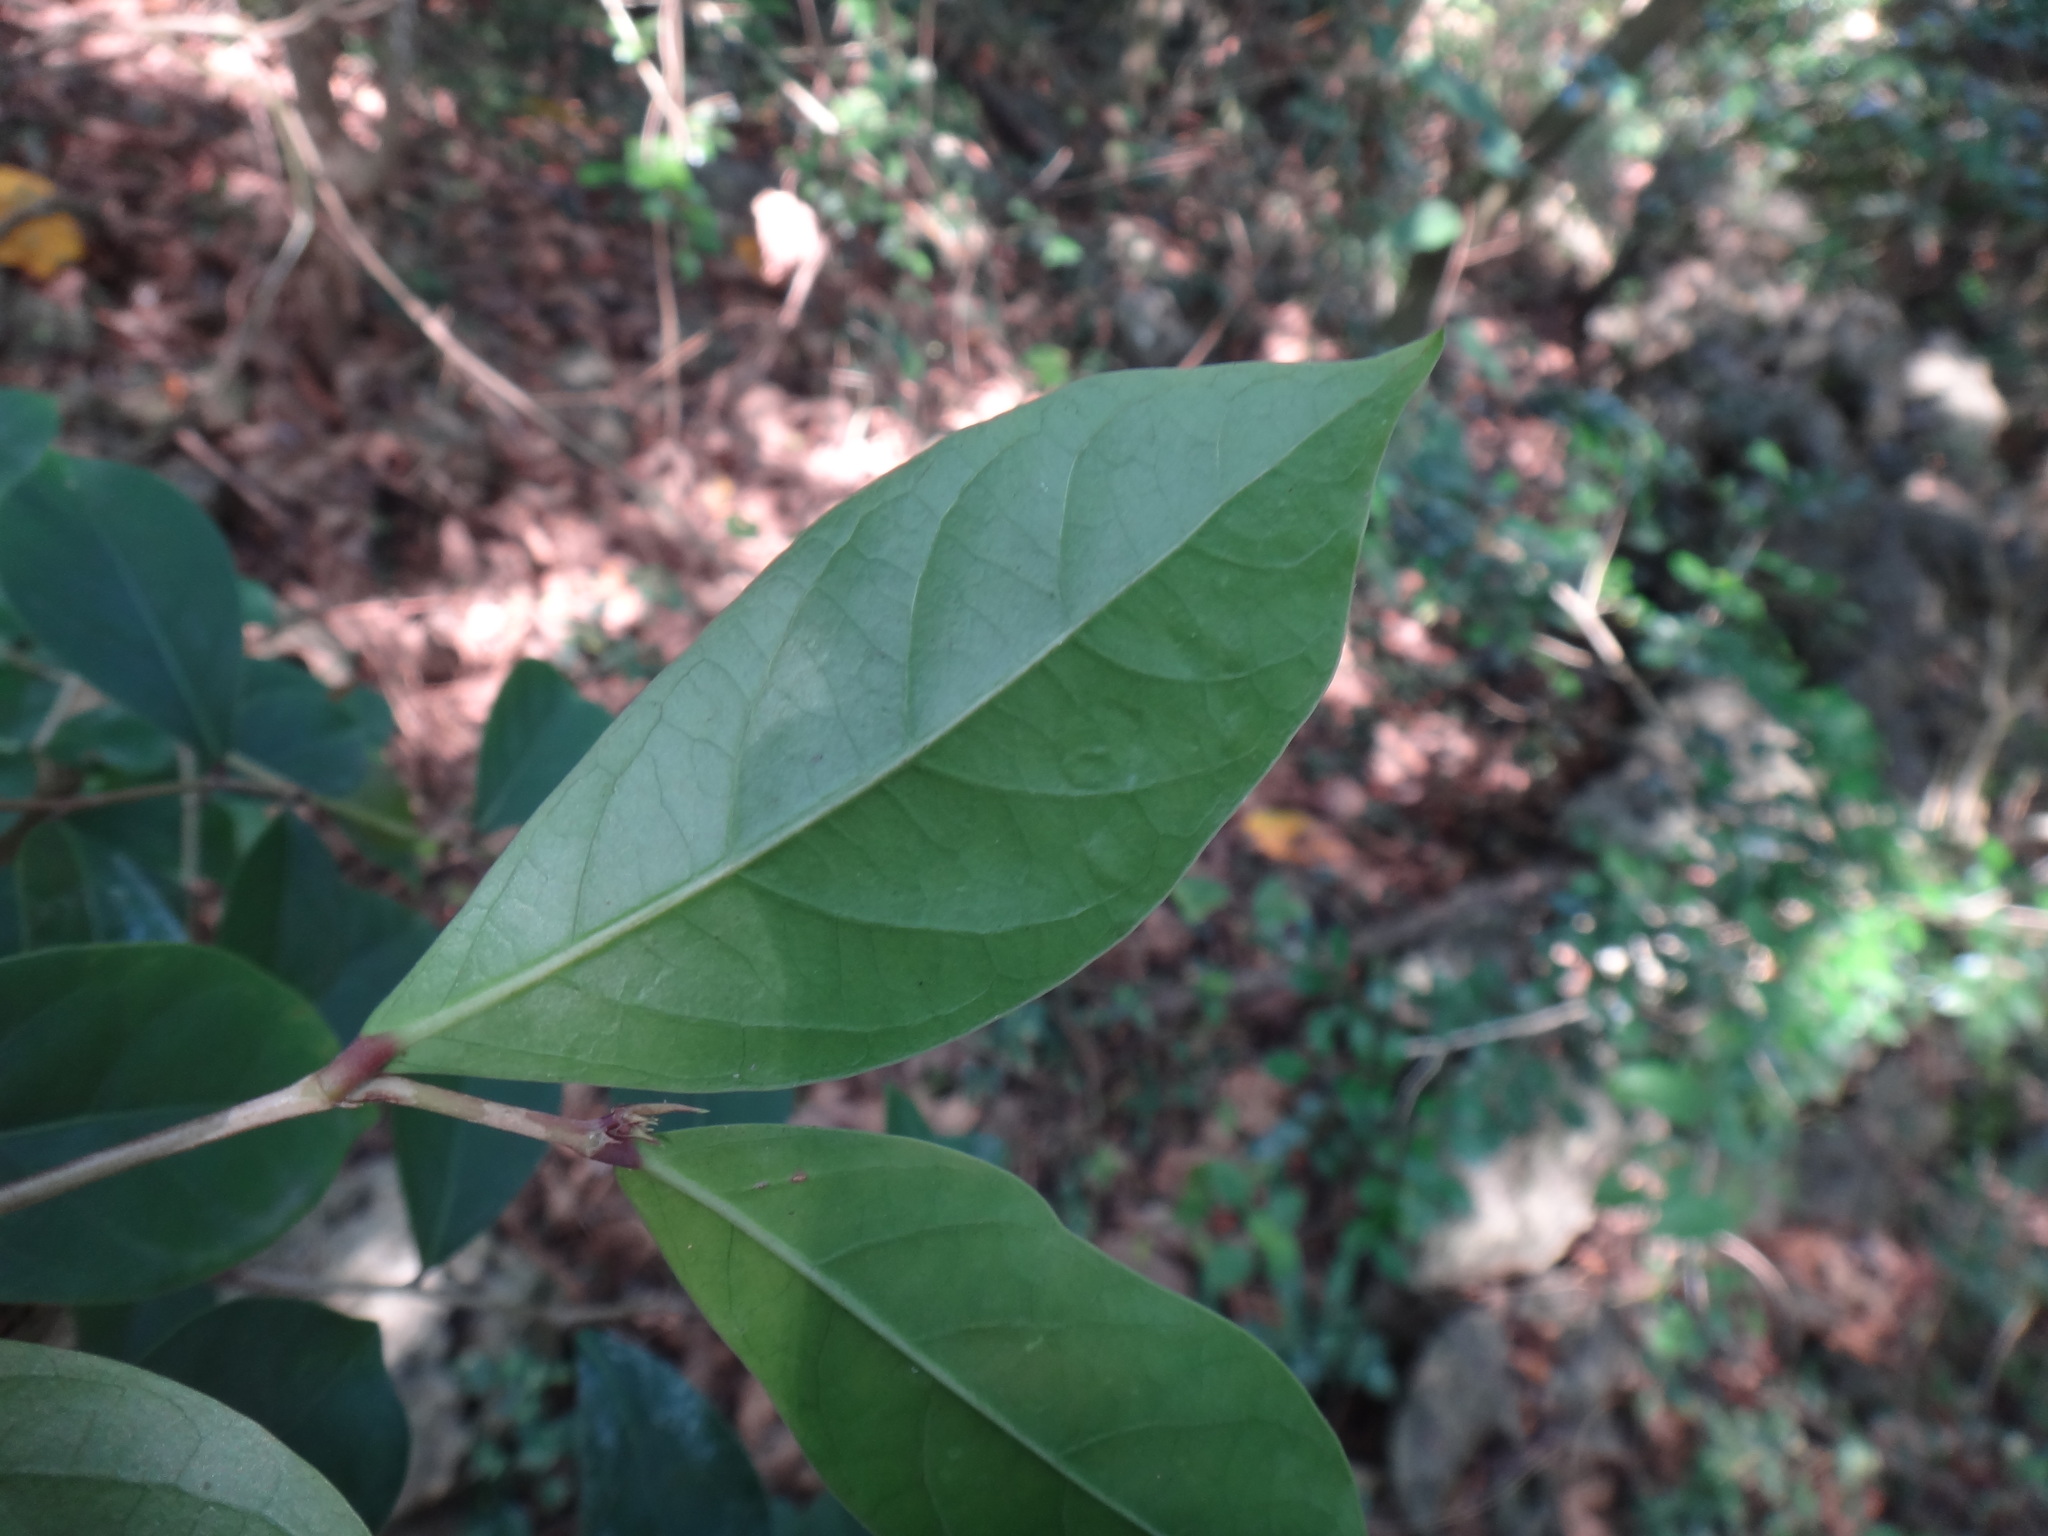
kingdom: Plantae
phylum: Tracheophyta
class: Magnoliopsida
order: Malpighiales
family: Phyllanthaceae
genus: Glochidion
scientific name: Glochidion rubrum
